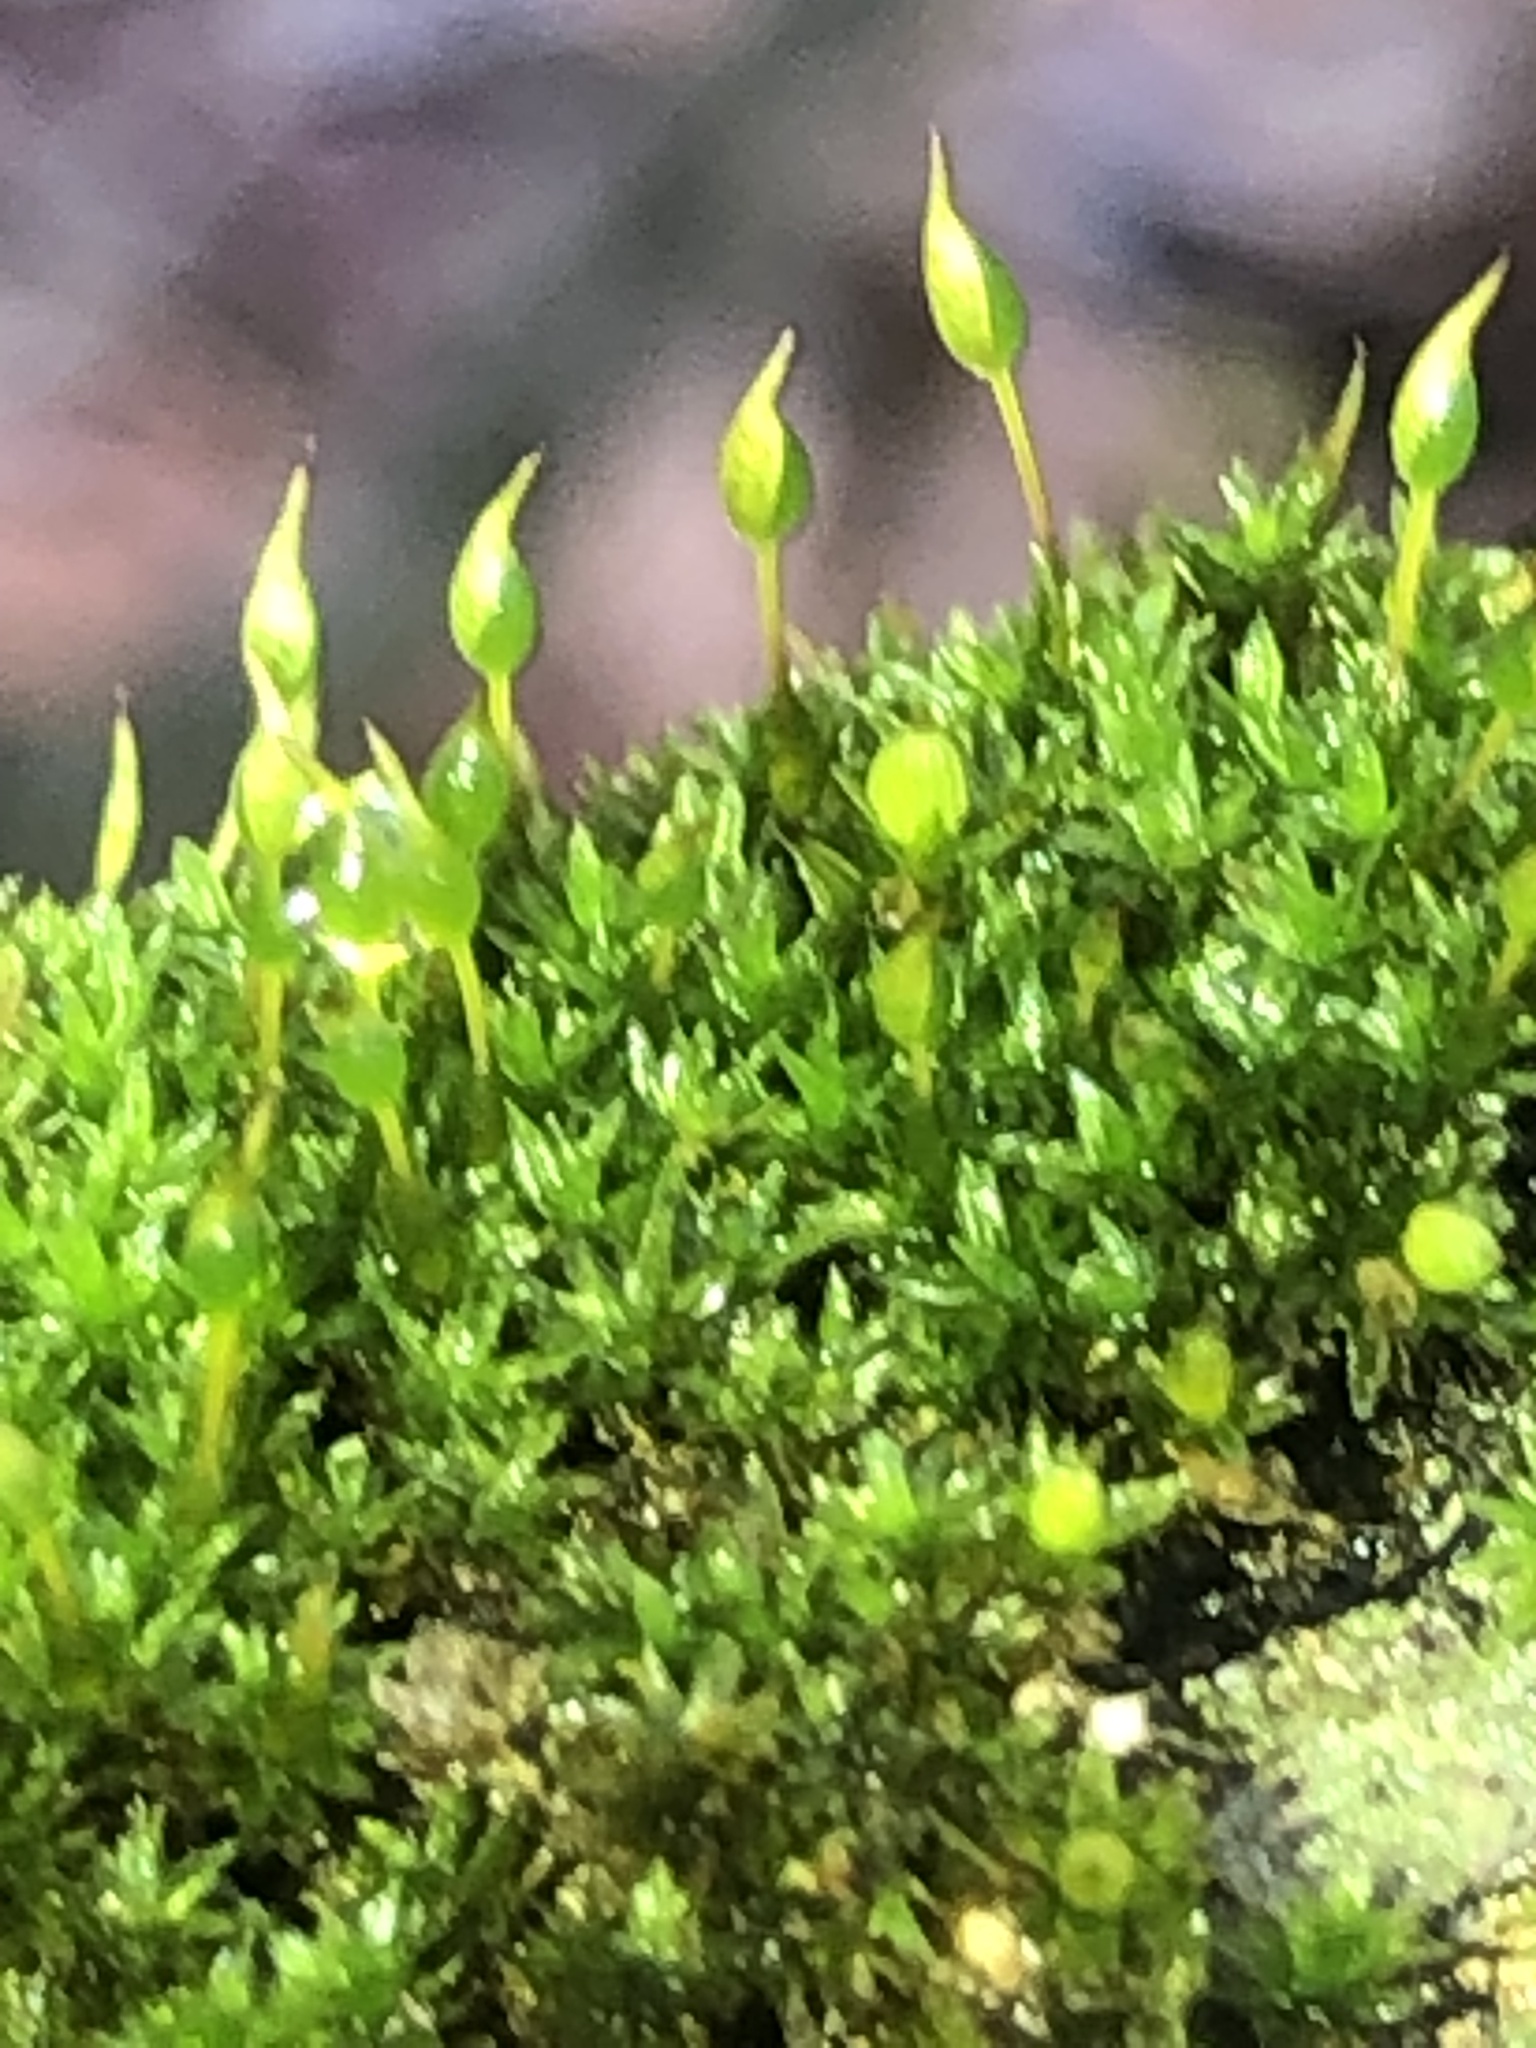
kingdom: Plantae
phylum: Bryophyta
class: Bryopsida
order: Pottiales
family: Pottiaceae
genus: Tortula
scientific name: Tortula truncata
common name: Truncated screw moss
